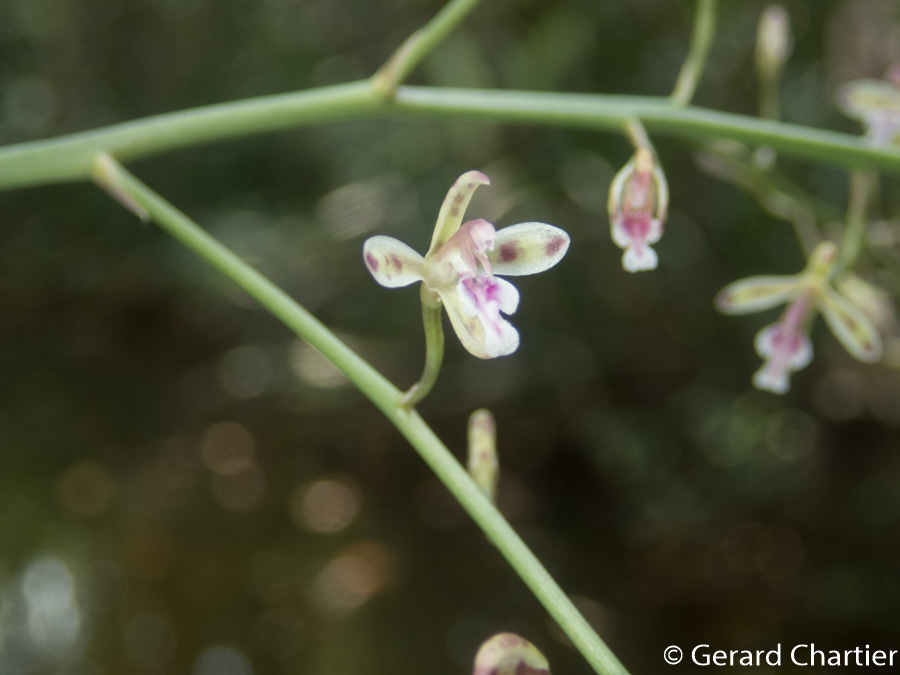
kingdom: Plantae
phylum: Tracheophyta
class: Liliopsida
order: Asparagales
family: Orchidaceae
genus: Acriopsis
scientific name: Acriopsis liliifolia
